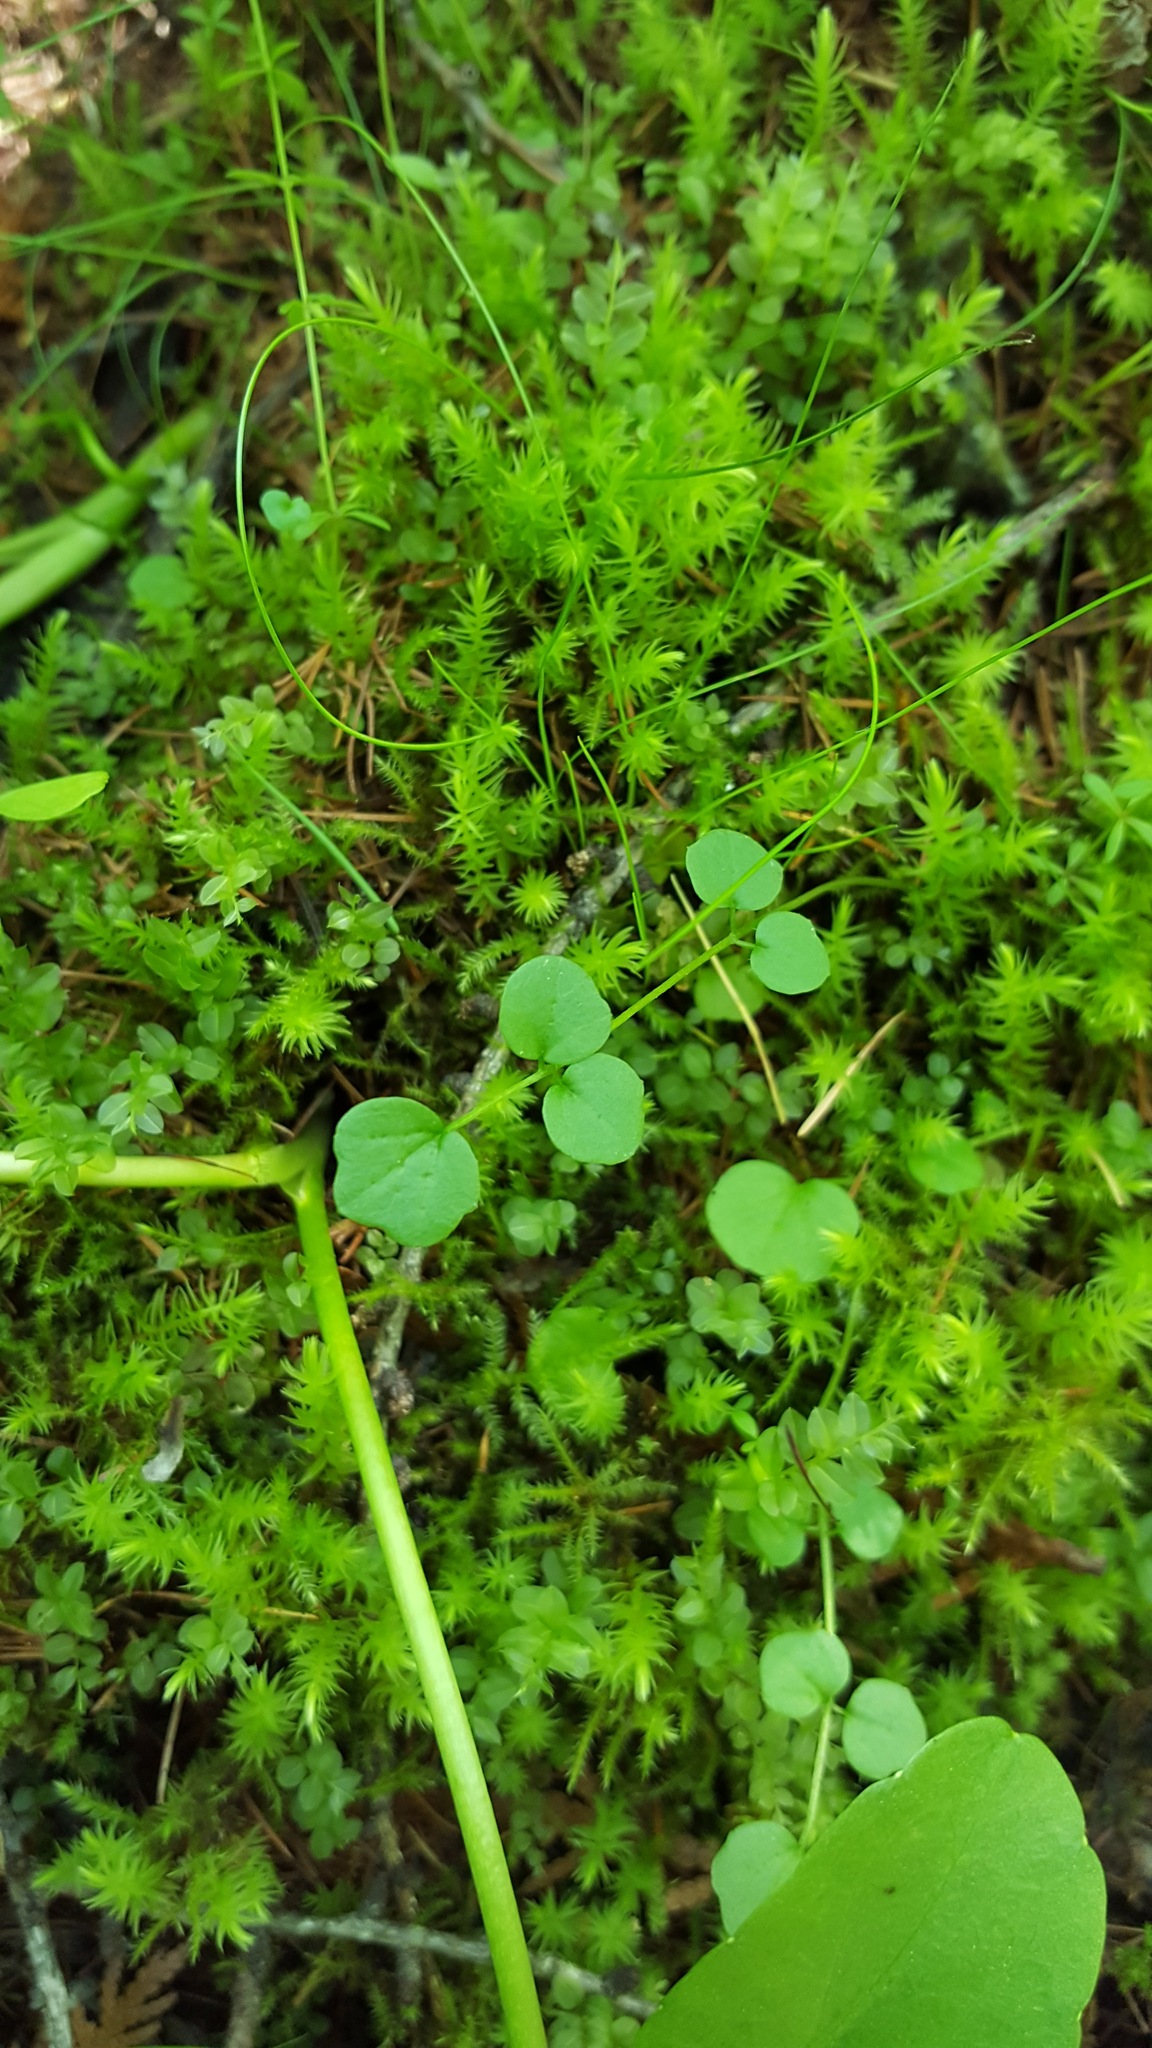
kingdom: Plantae
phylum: Tracheophyta
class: Magnoliopsida
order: Brassicales
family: Brassicaceae
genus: Cardamine
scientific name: Cardamine pratensis
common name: Cuckoo flower
